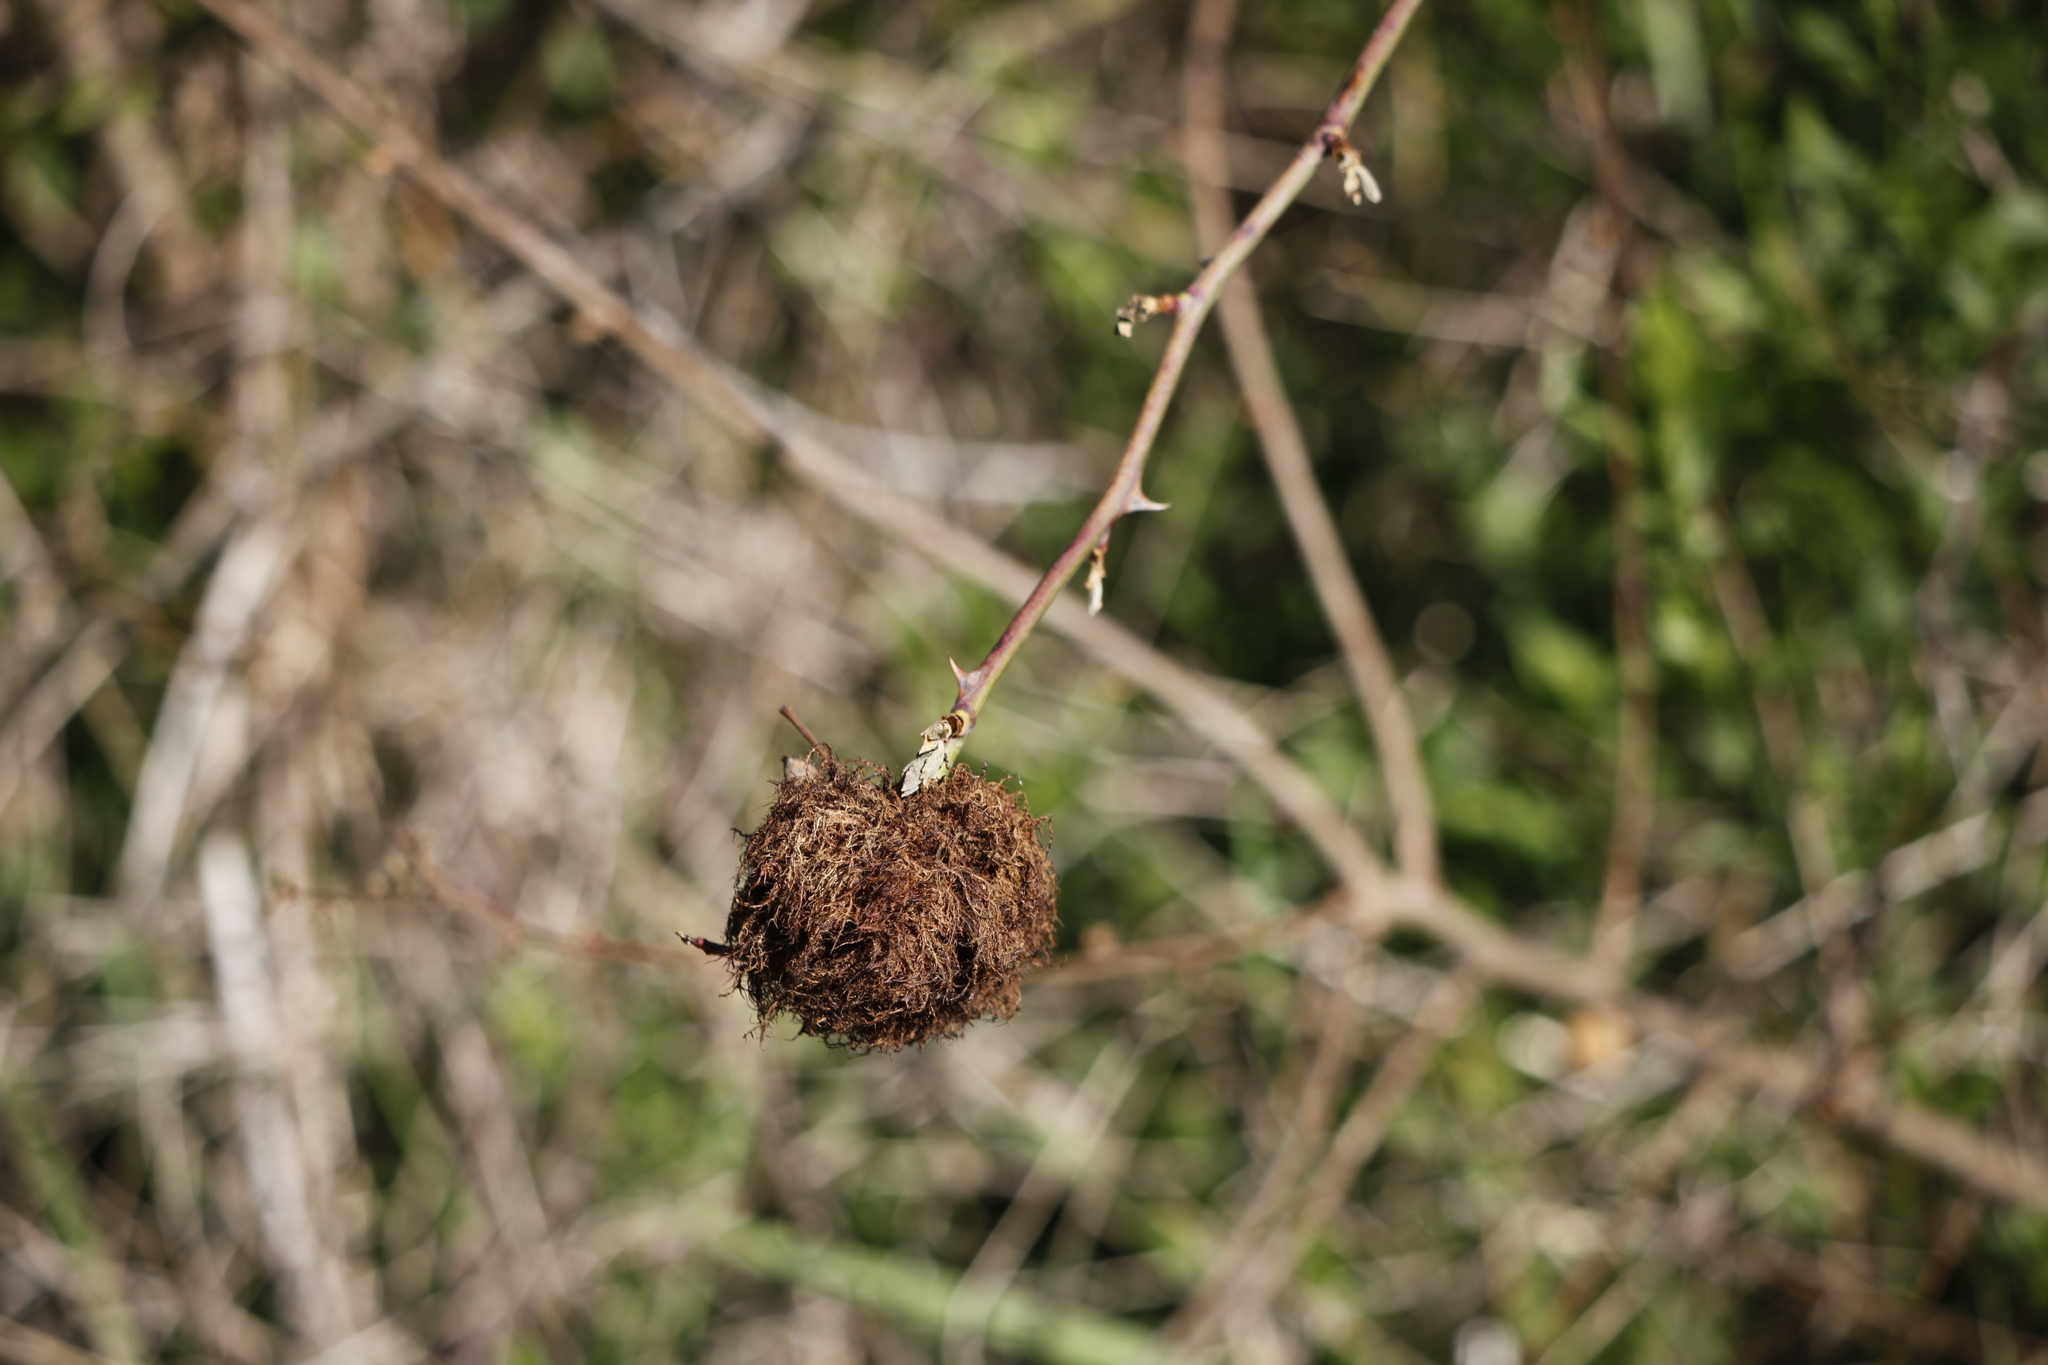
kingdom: Animalia
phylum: Arthropoda
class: Insecta
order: Hymenoptera
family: Cynipidae
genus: Diplolepis
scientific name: Diplolepis rosae
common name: Bedeguar gall
